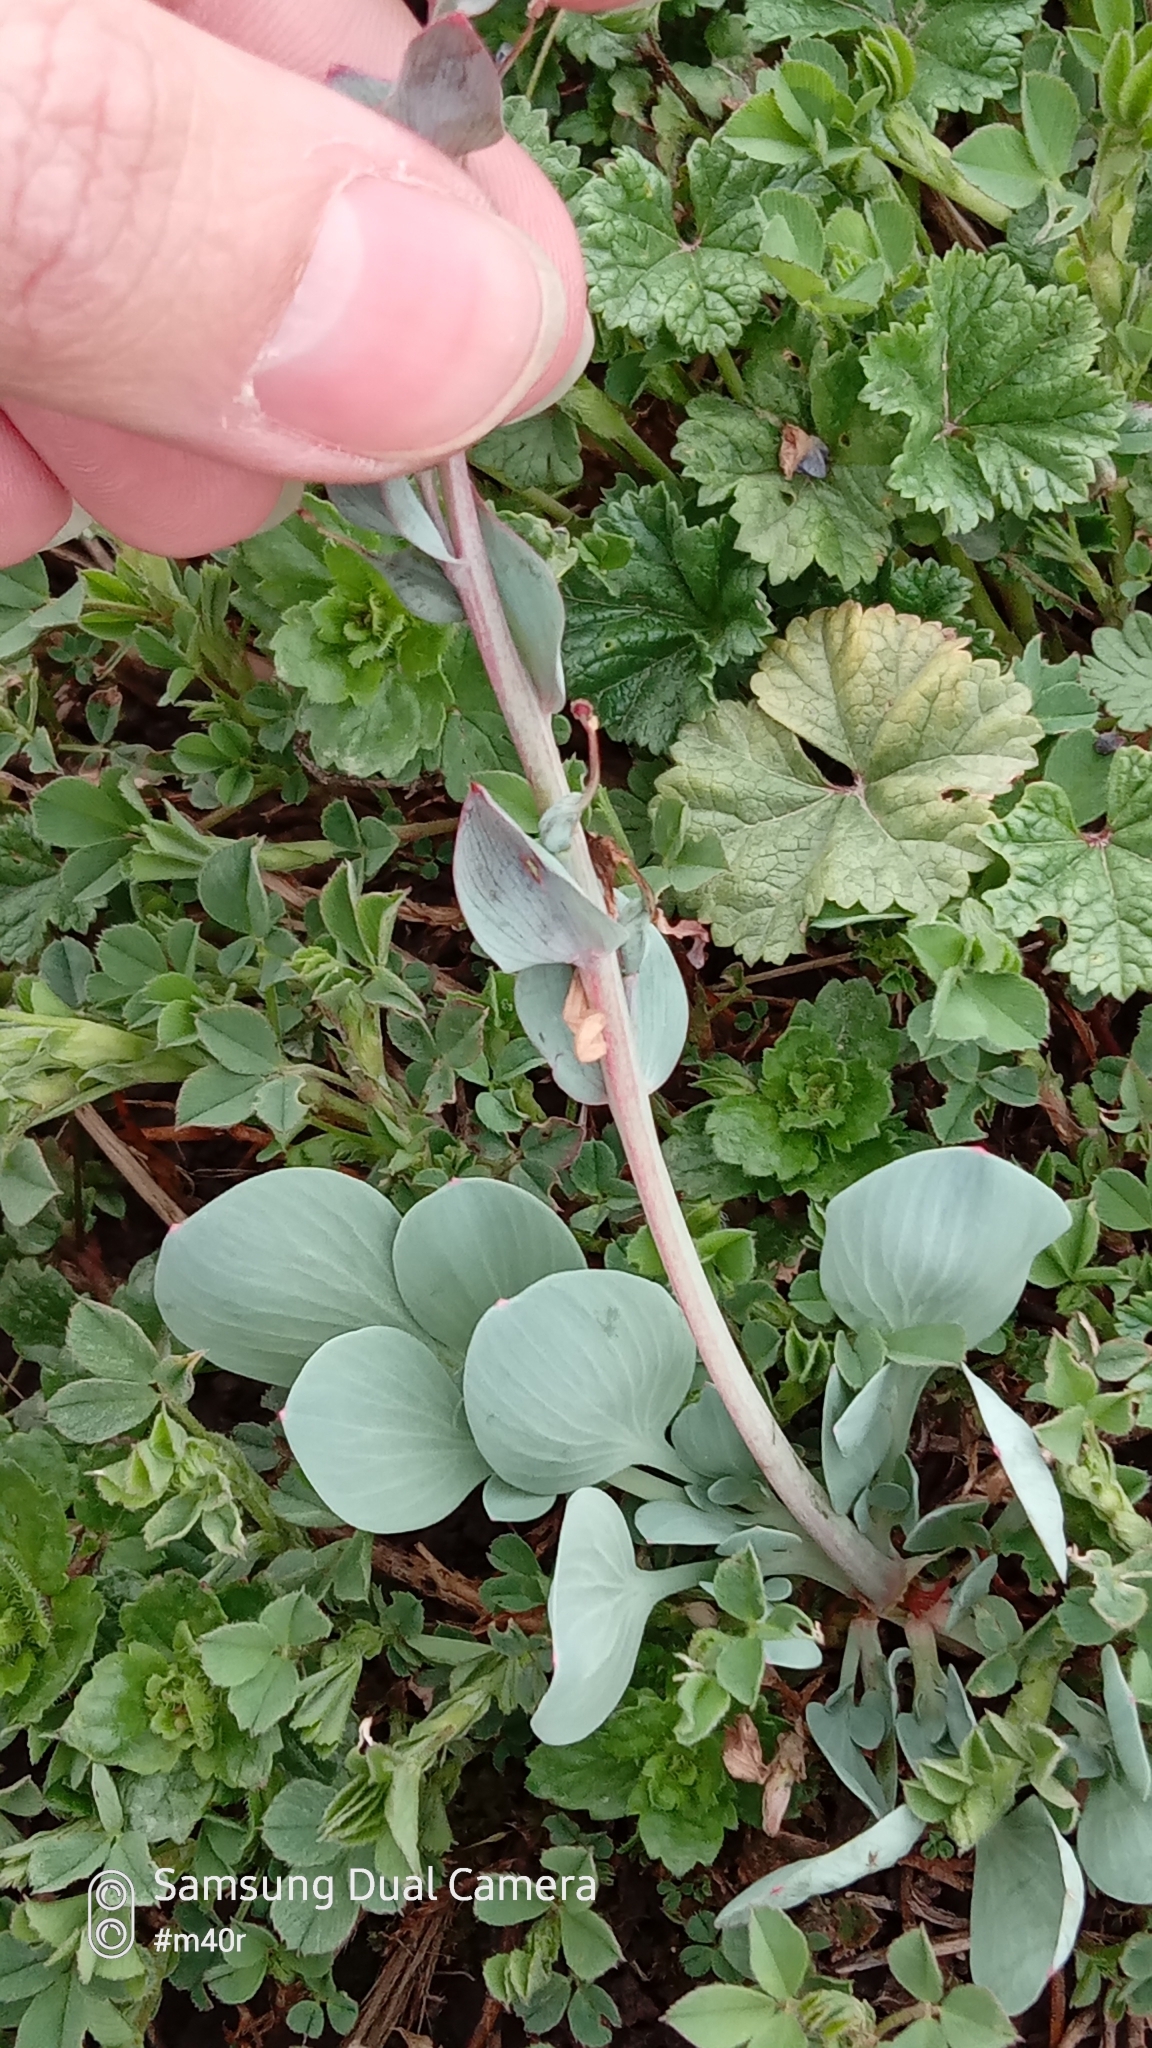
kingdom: Plantae
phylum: Tracheophyta
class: Magnoliopsida
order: Ranunculales
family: Papaveraceae
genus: Corydalis
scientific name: Corydalis ledebouriana
